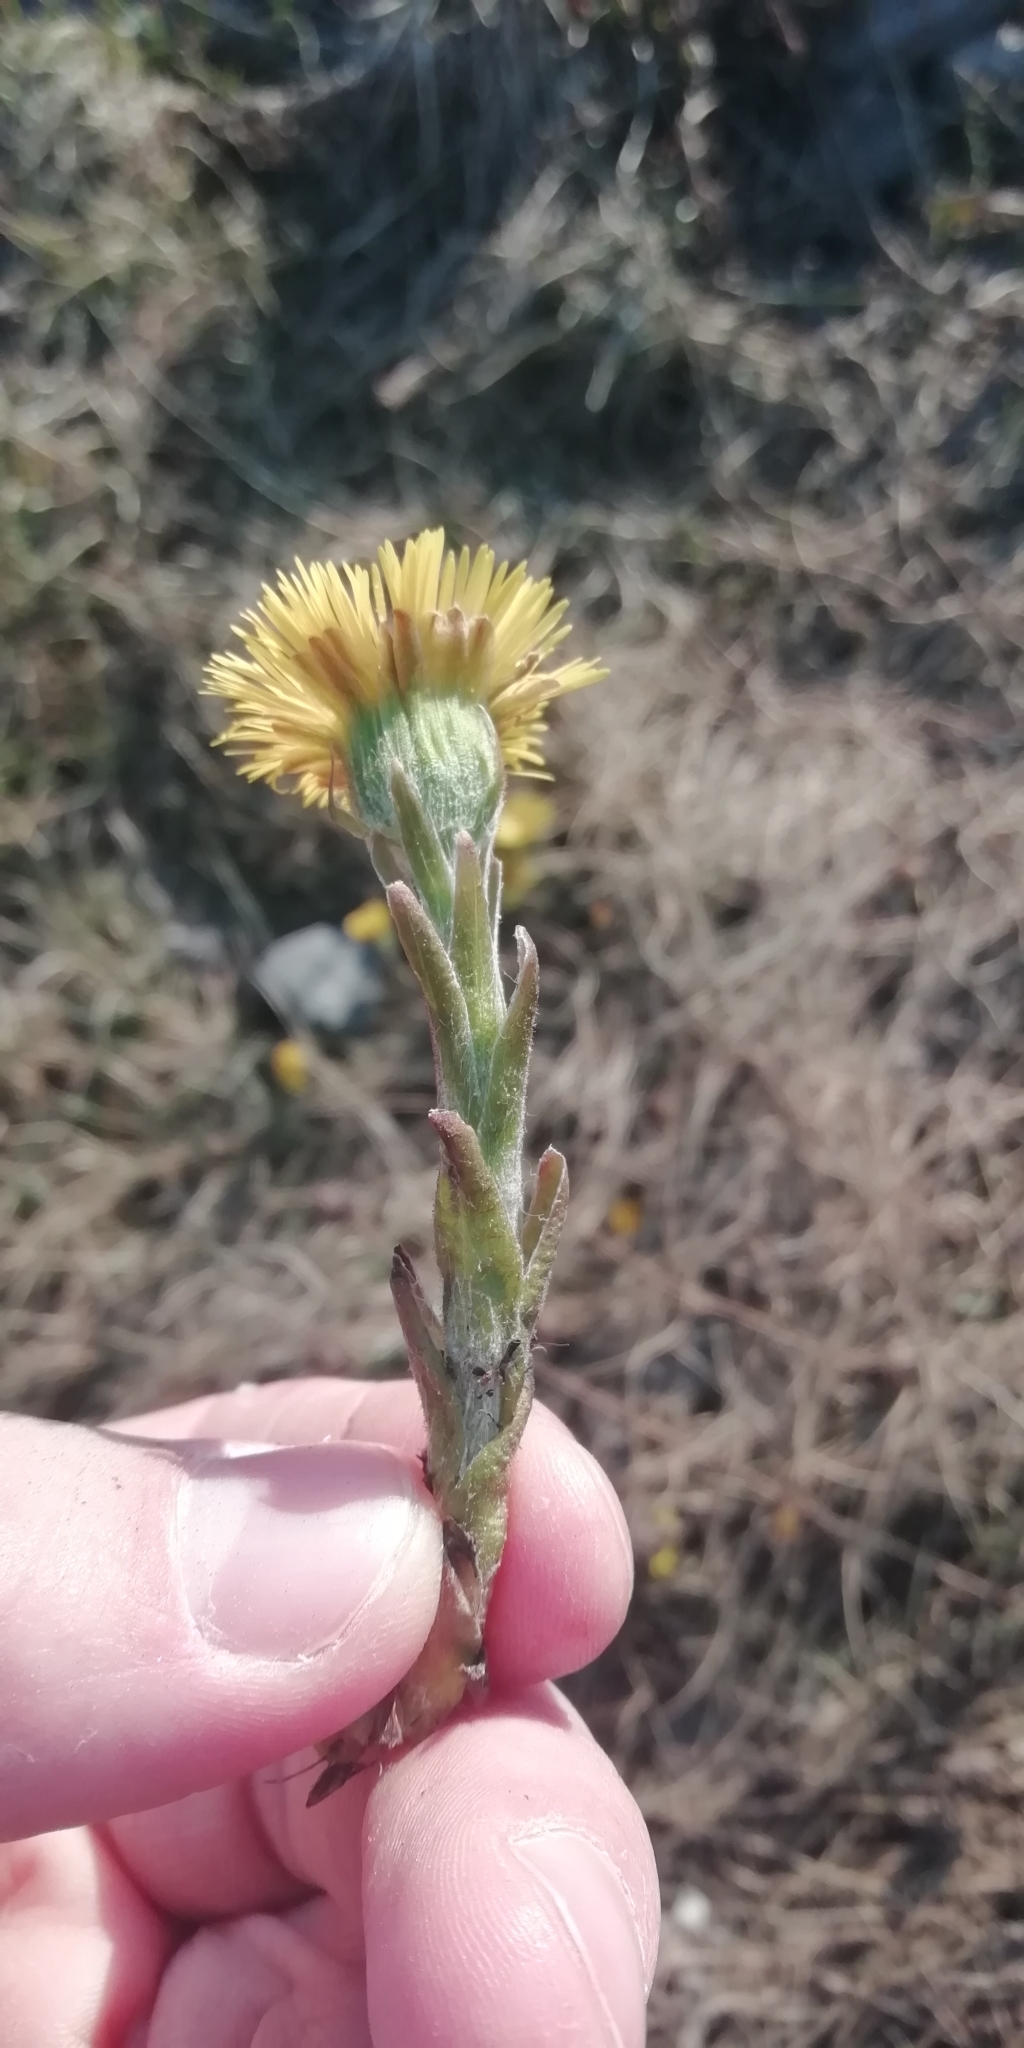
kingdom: Plantae
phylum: Tracheophyta
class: Magnoliopsida
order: Asterales
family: Asteraceae
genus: Tussilago
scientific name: Tussilago farfara
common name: Coltsfoot
